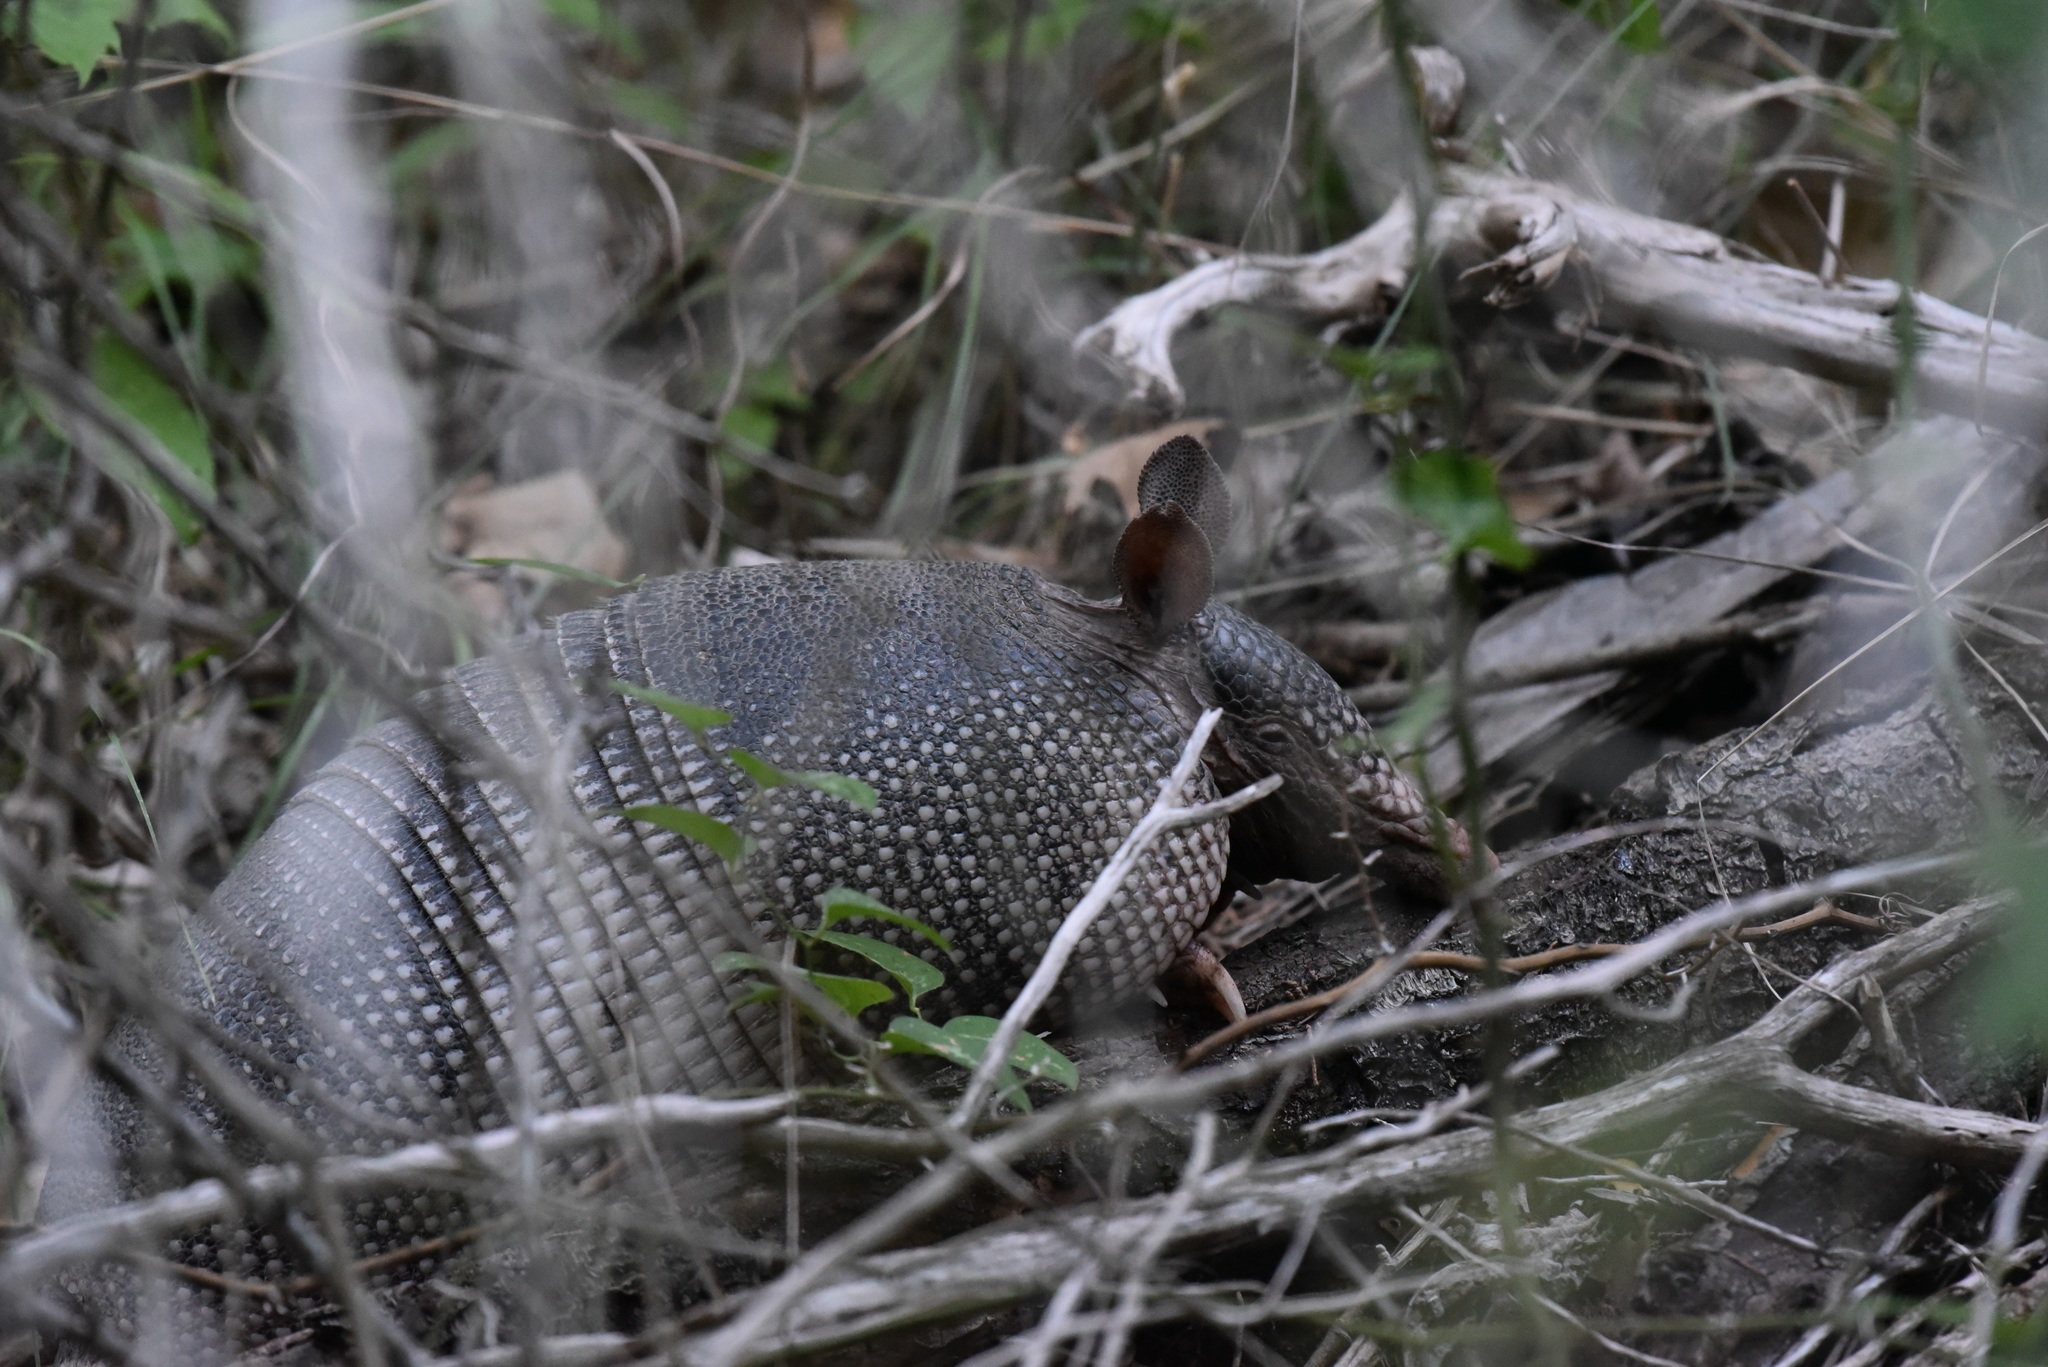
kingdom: Animalia
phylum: Chordata
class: Mammalia
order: Cingulata
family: Dasypodidae
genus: Dasypus
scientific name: Dasypus novemcinctus
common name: Nine-banded armadillo
